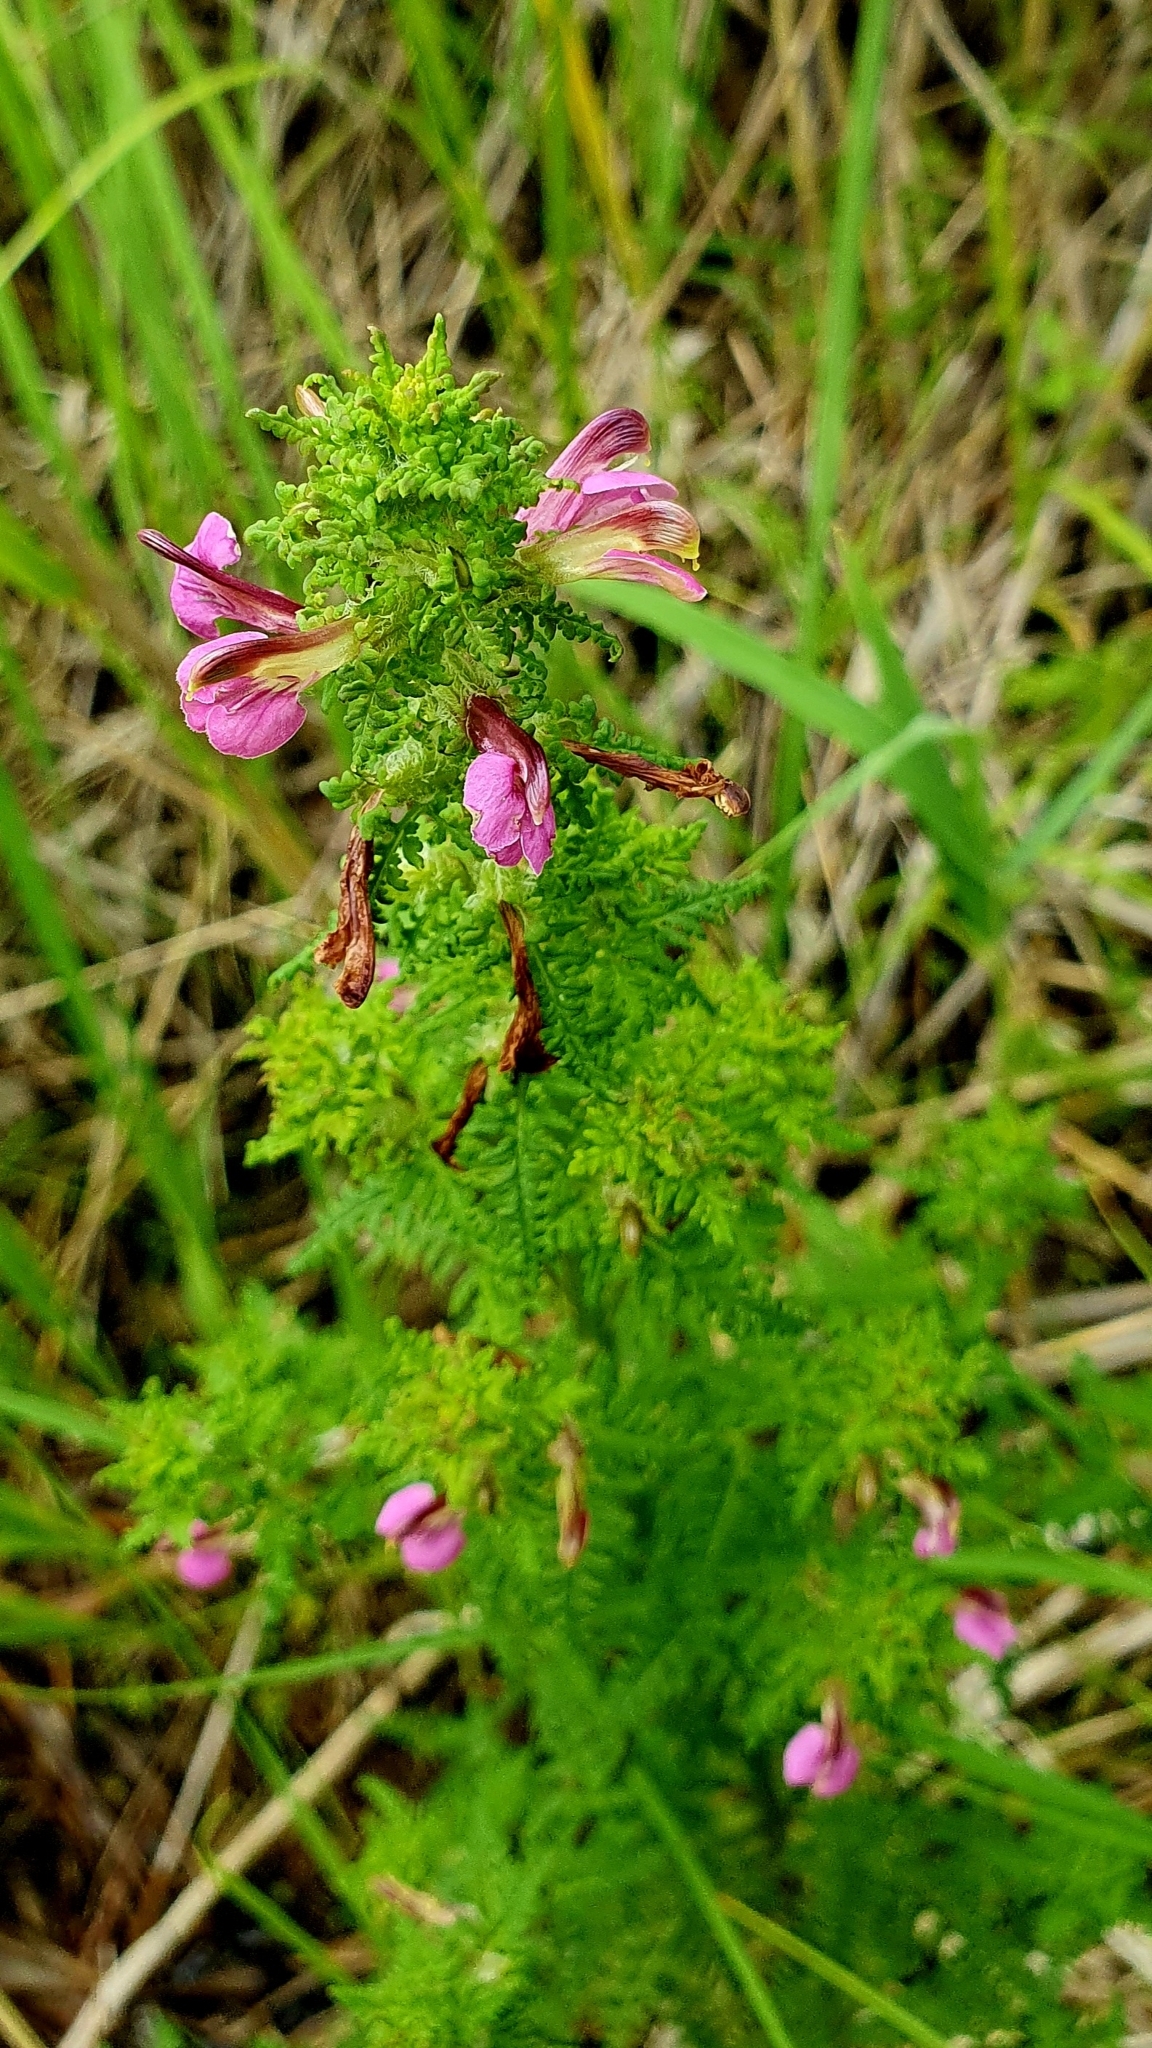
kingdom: Plantae
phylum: Tracheophyta
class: Magnoliopsida
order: Lamiales
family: Orobanchaceae
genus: Pedicularis
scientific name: Pedicularis palustris
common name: Marsh lousewort
